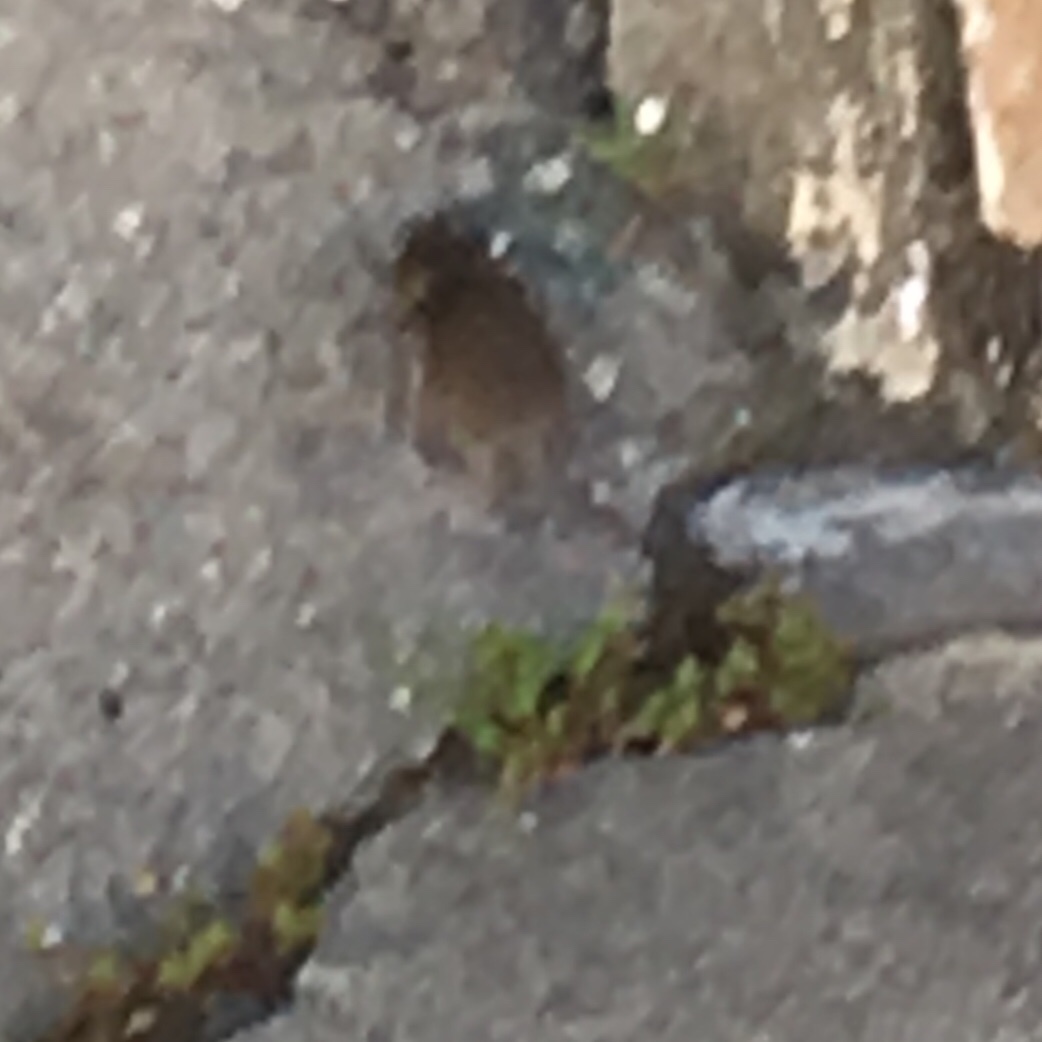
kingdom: Animalia
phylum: Chordata
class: Mammalia
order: Rodentia
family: Muridae
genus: Mus
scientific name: Mus musculus
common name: House mouse
